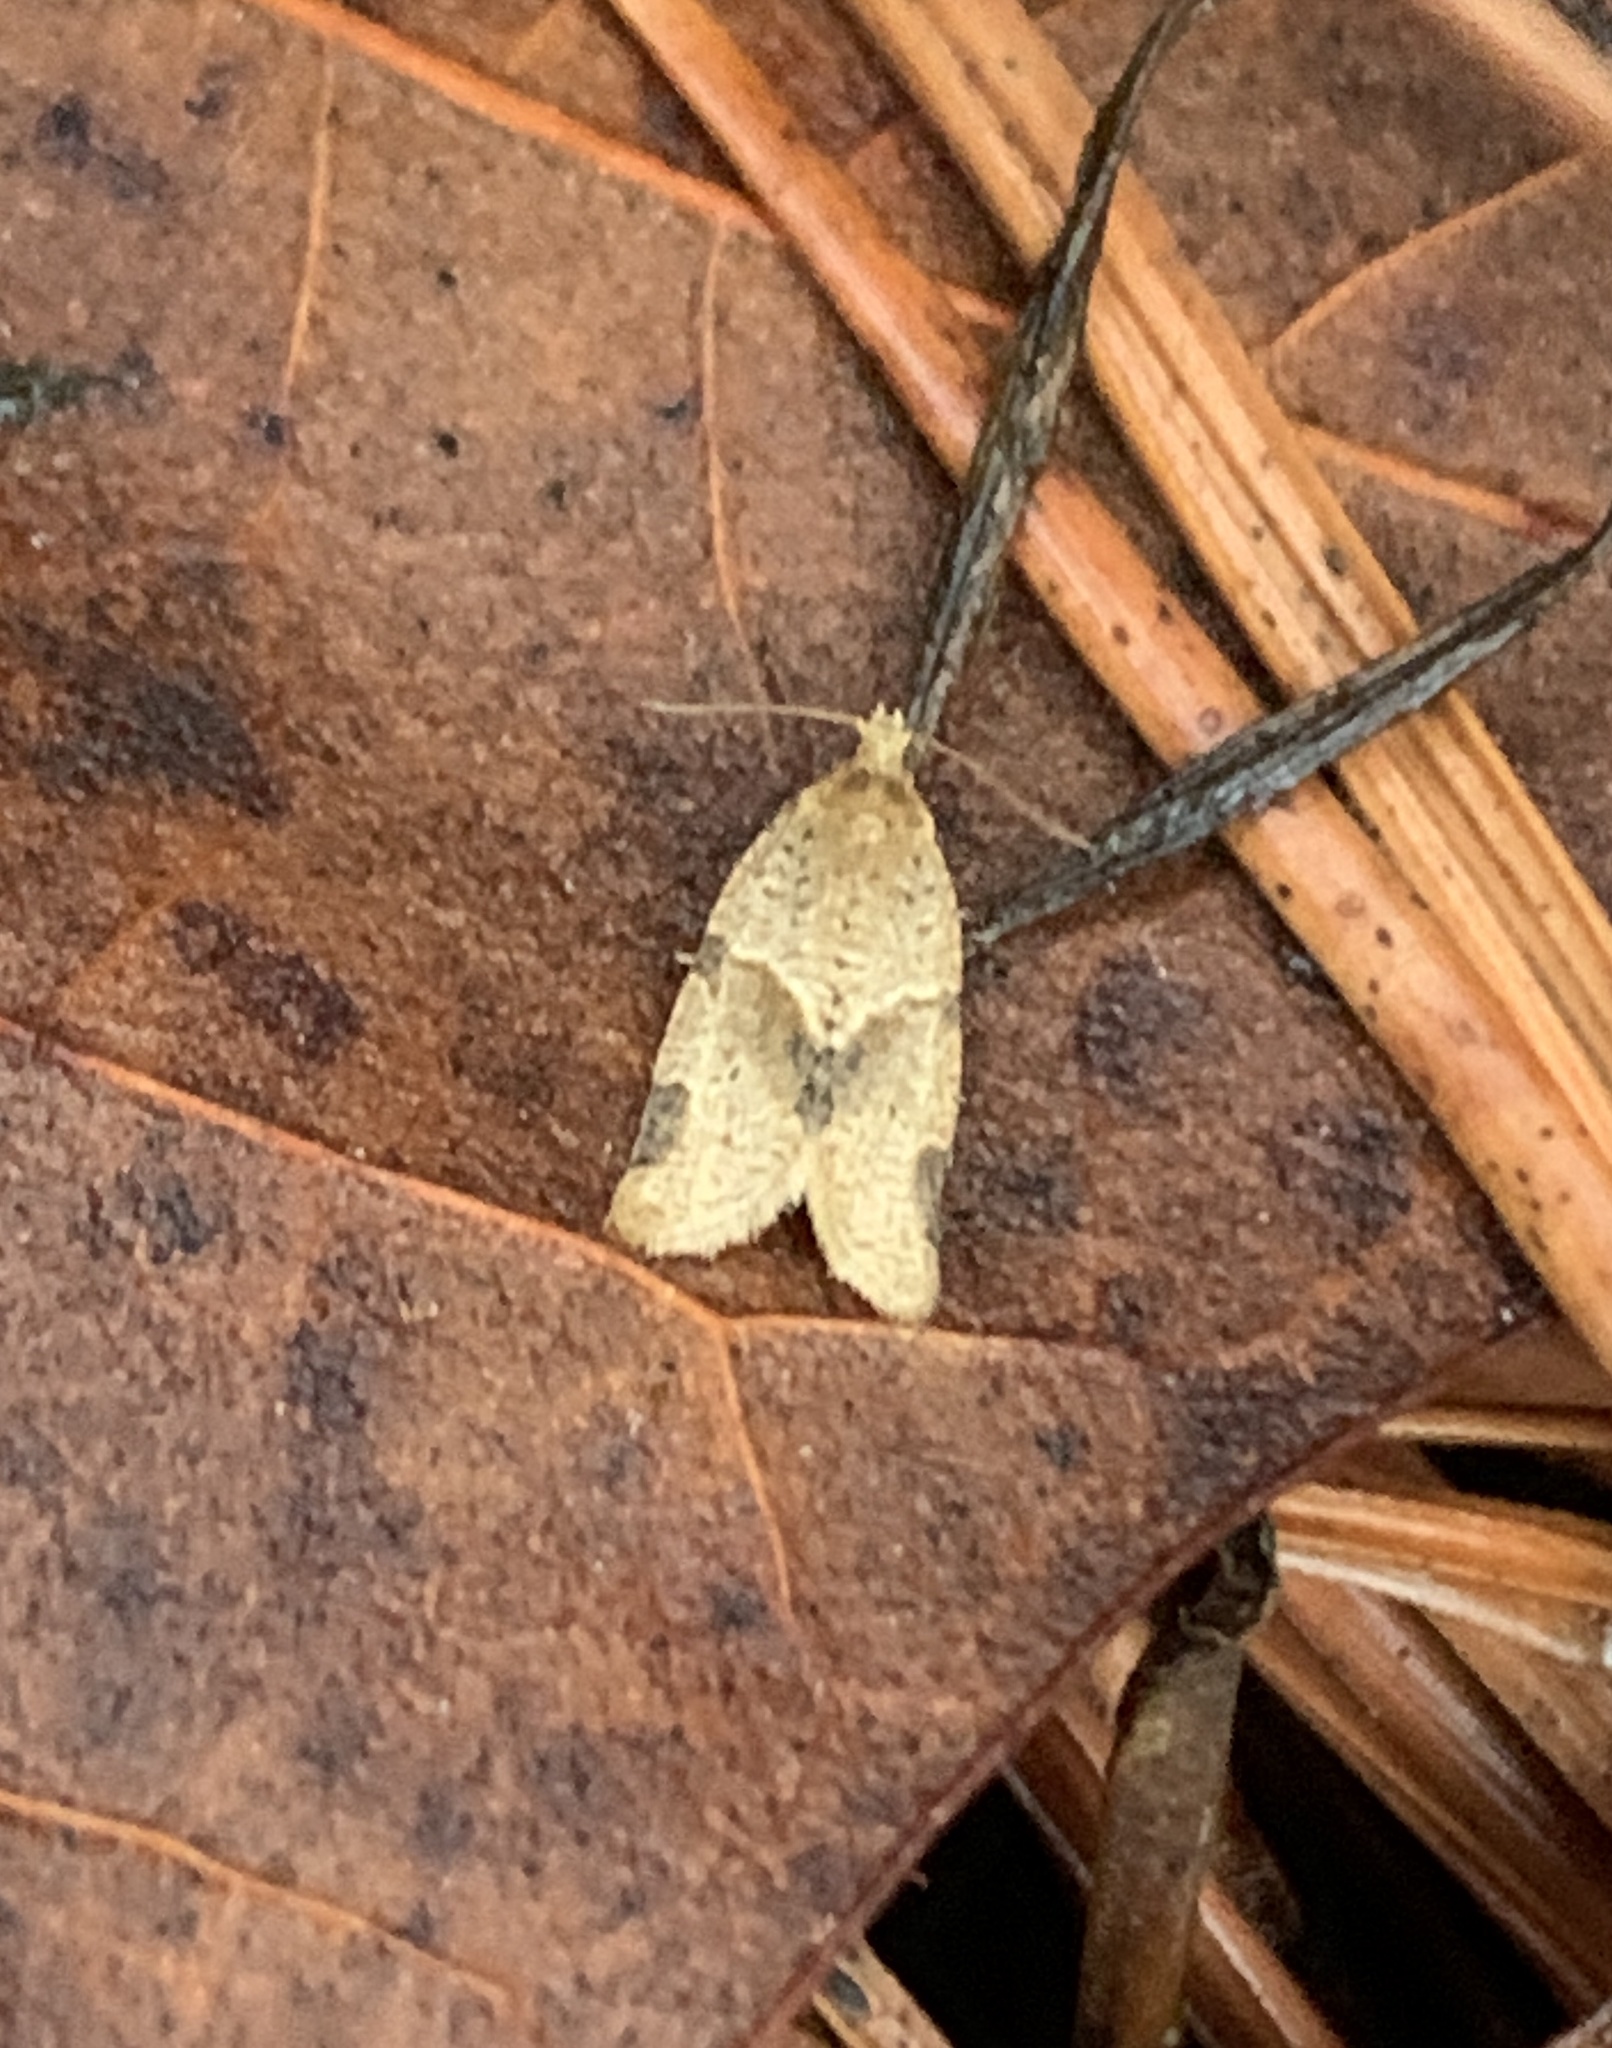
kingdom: Animalia
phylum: Arthropoda
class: Insecta
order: Lepidoptera
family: Tortricidae
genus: Clepsis
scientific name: Clepsis peritana
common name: Garden tortrix
